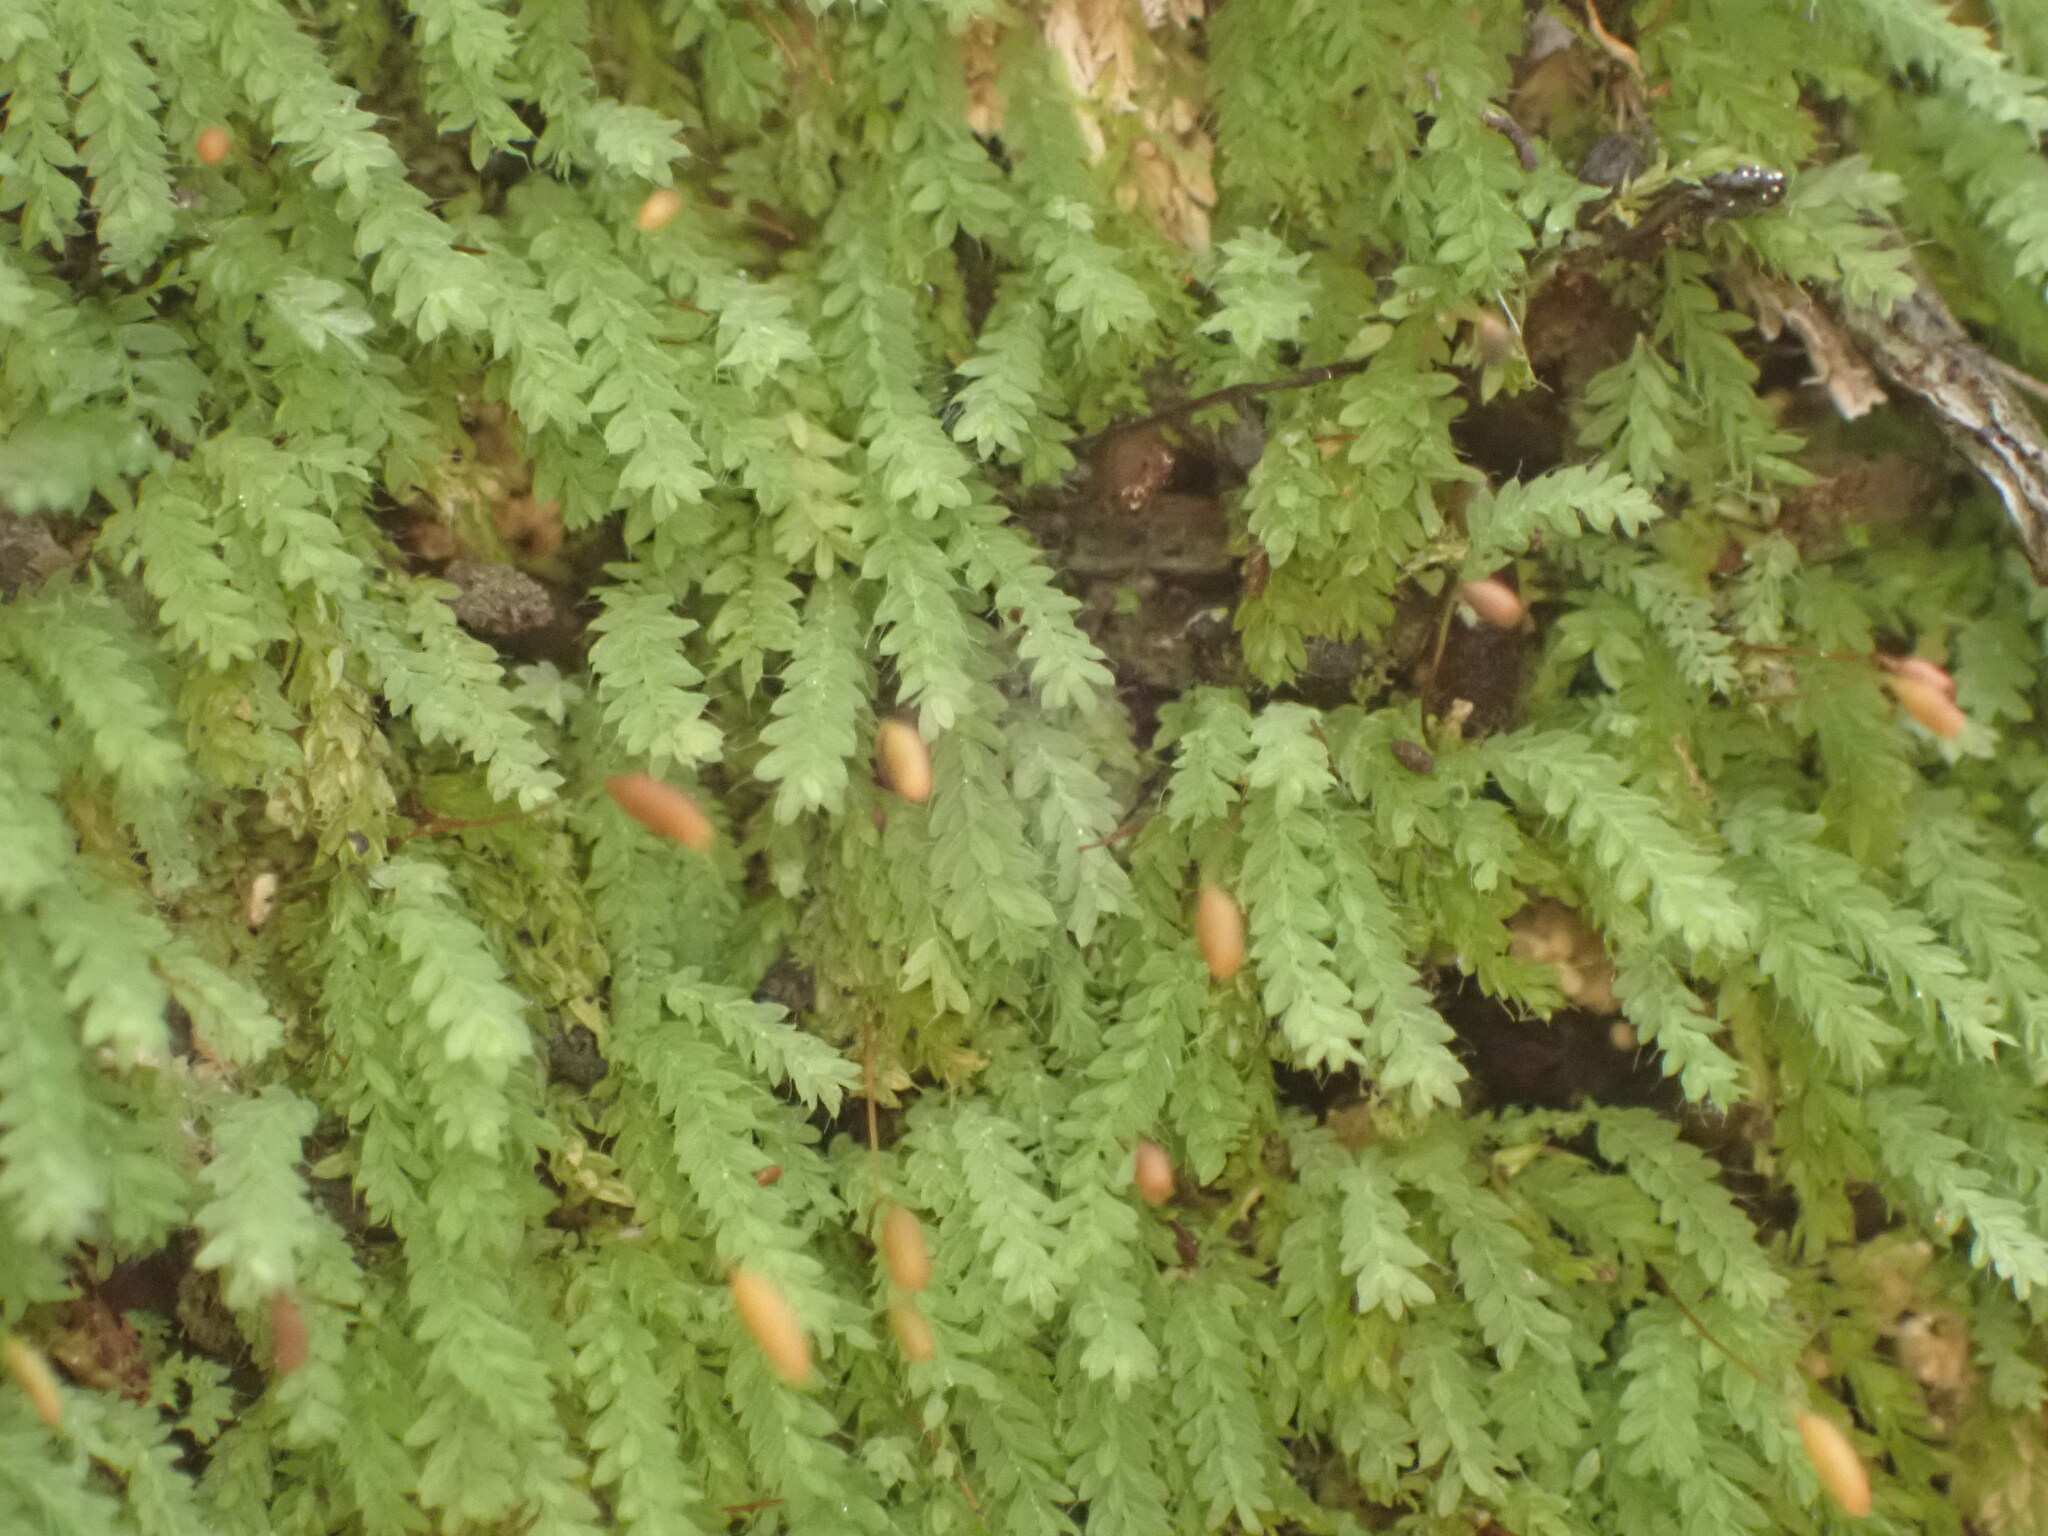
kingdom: Plantae
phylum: Bryophyta
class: Bryopsida
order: Orthodontiales
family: Orthodontiaceae
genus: Hymenodon
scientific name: Hymenodon pilifer
